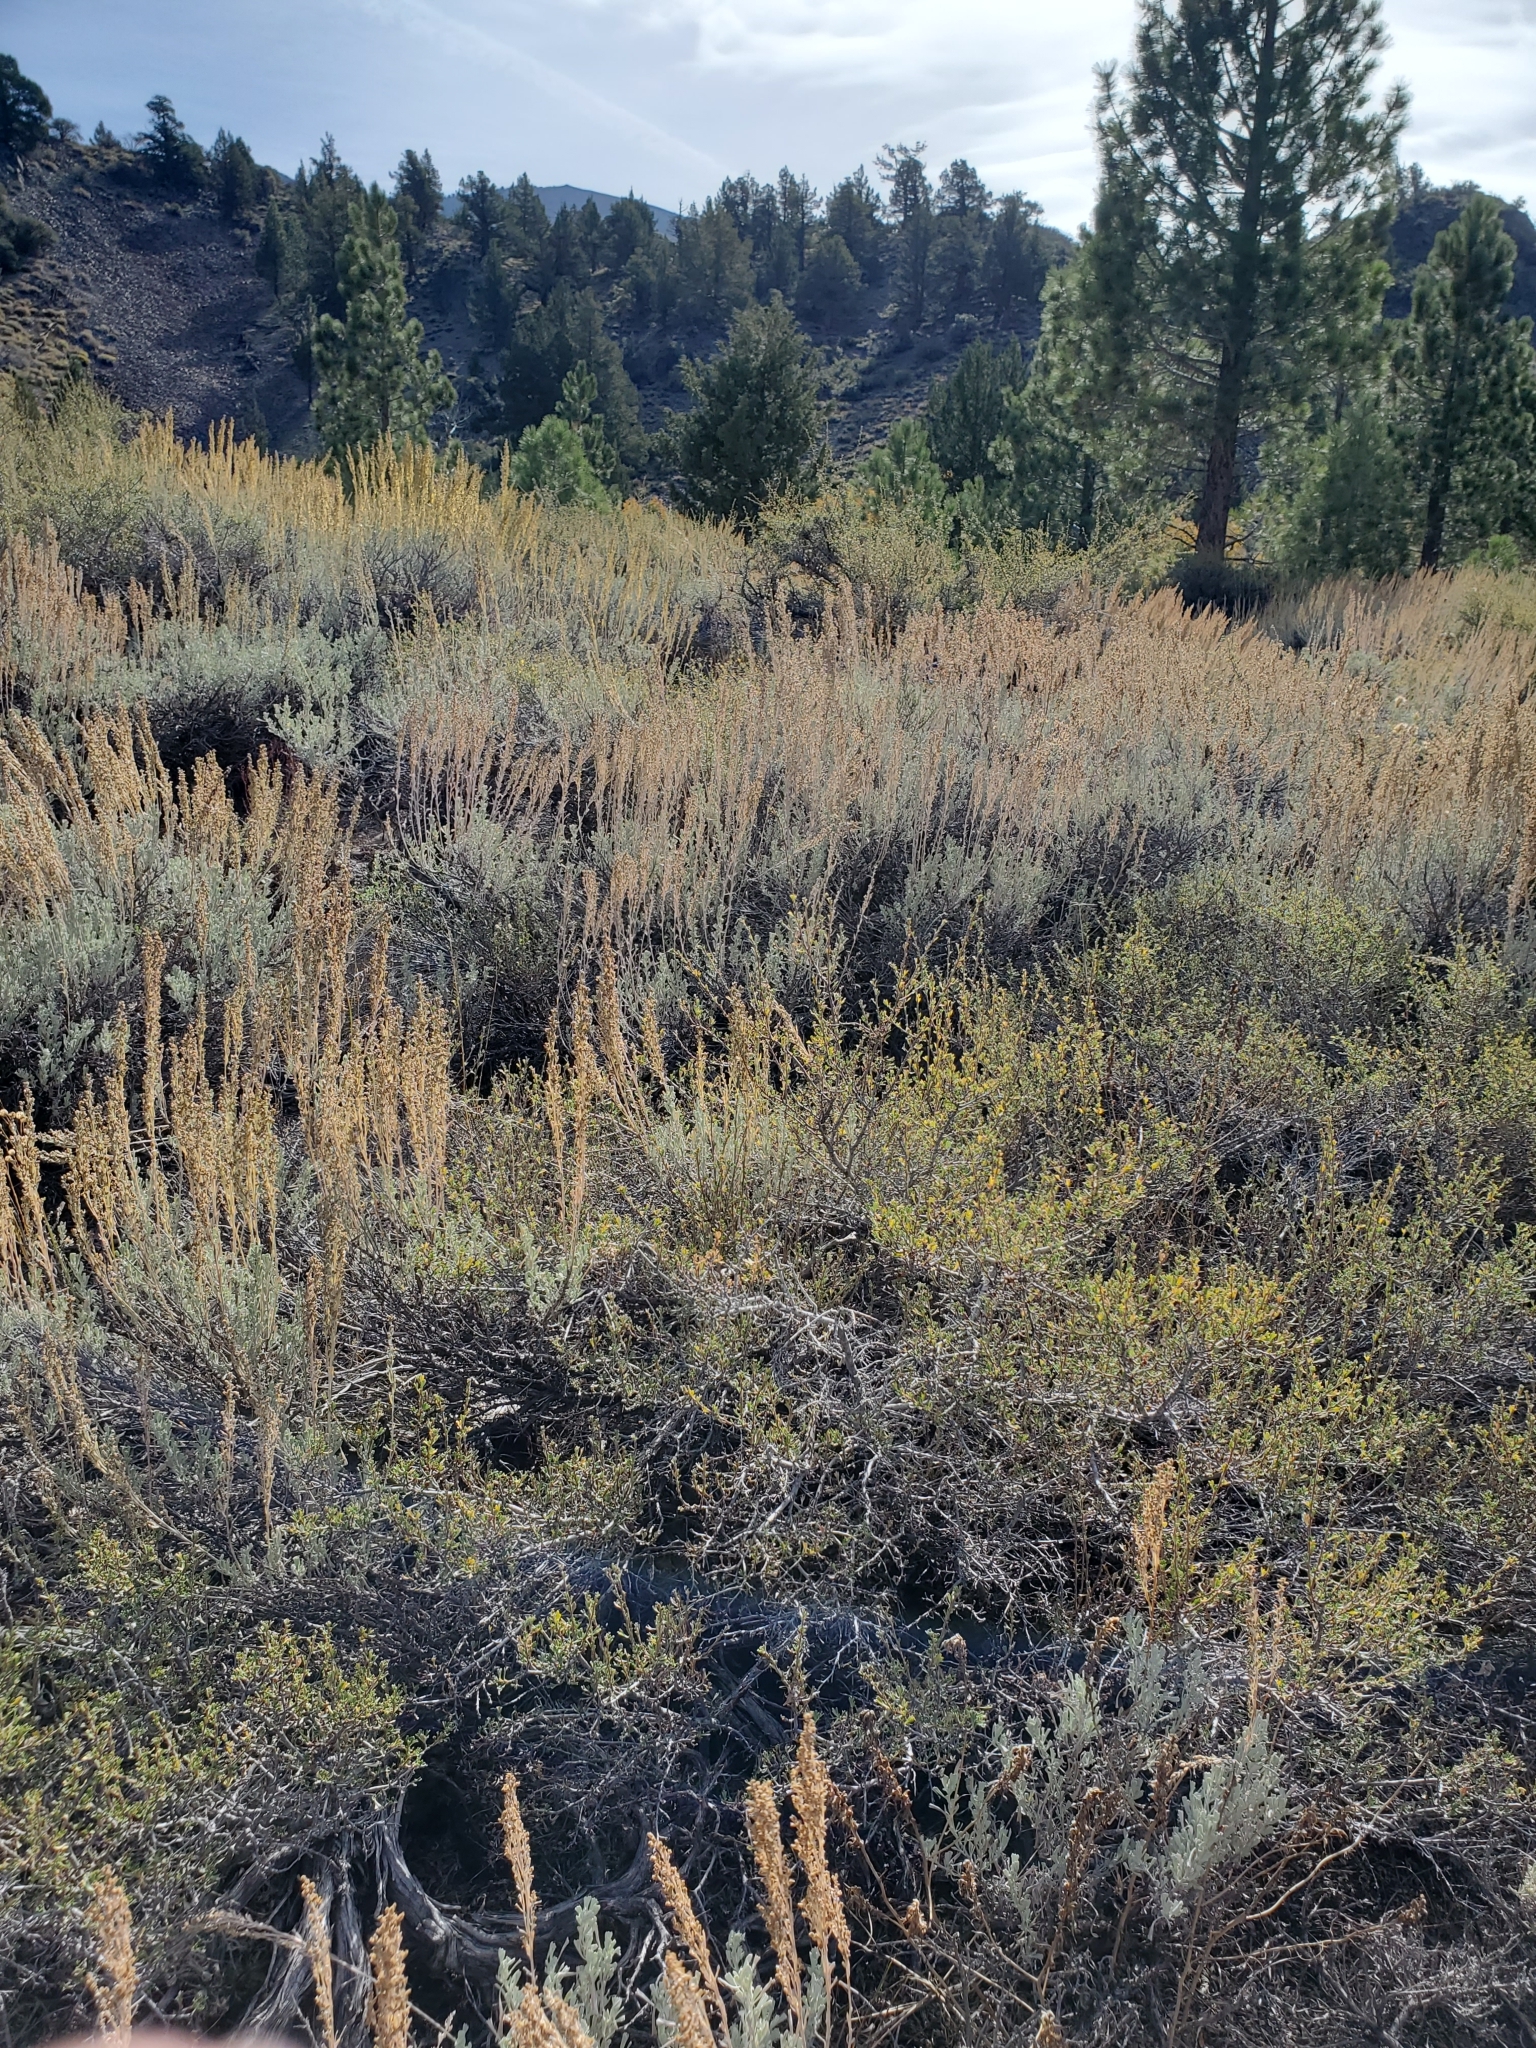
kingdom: Plantae
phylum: Tracheophyta
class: Magnoliopsida
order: Asterales
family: Asteraceae
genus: Artemisia
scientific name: Artemisia tridentata
